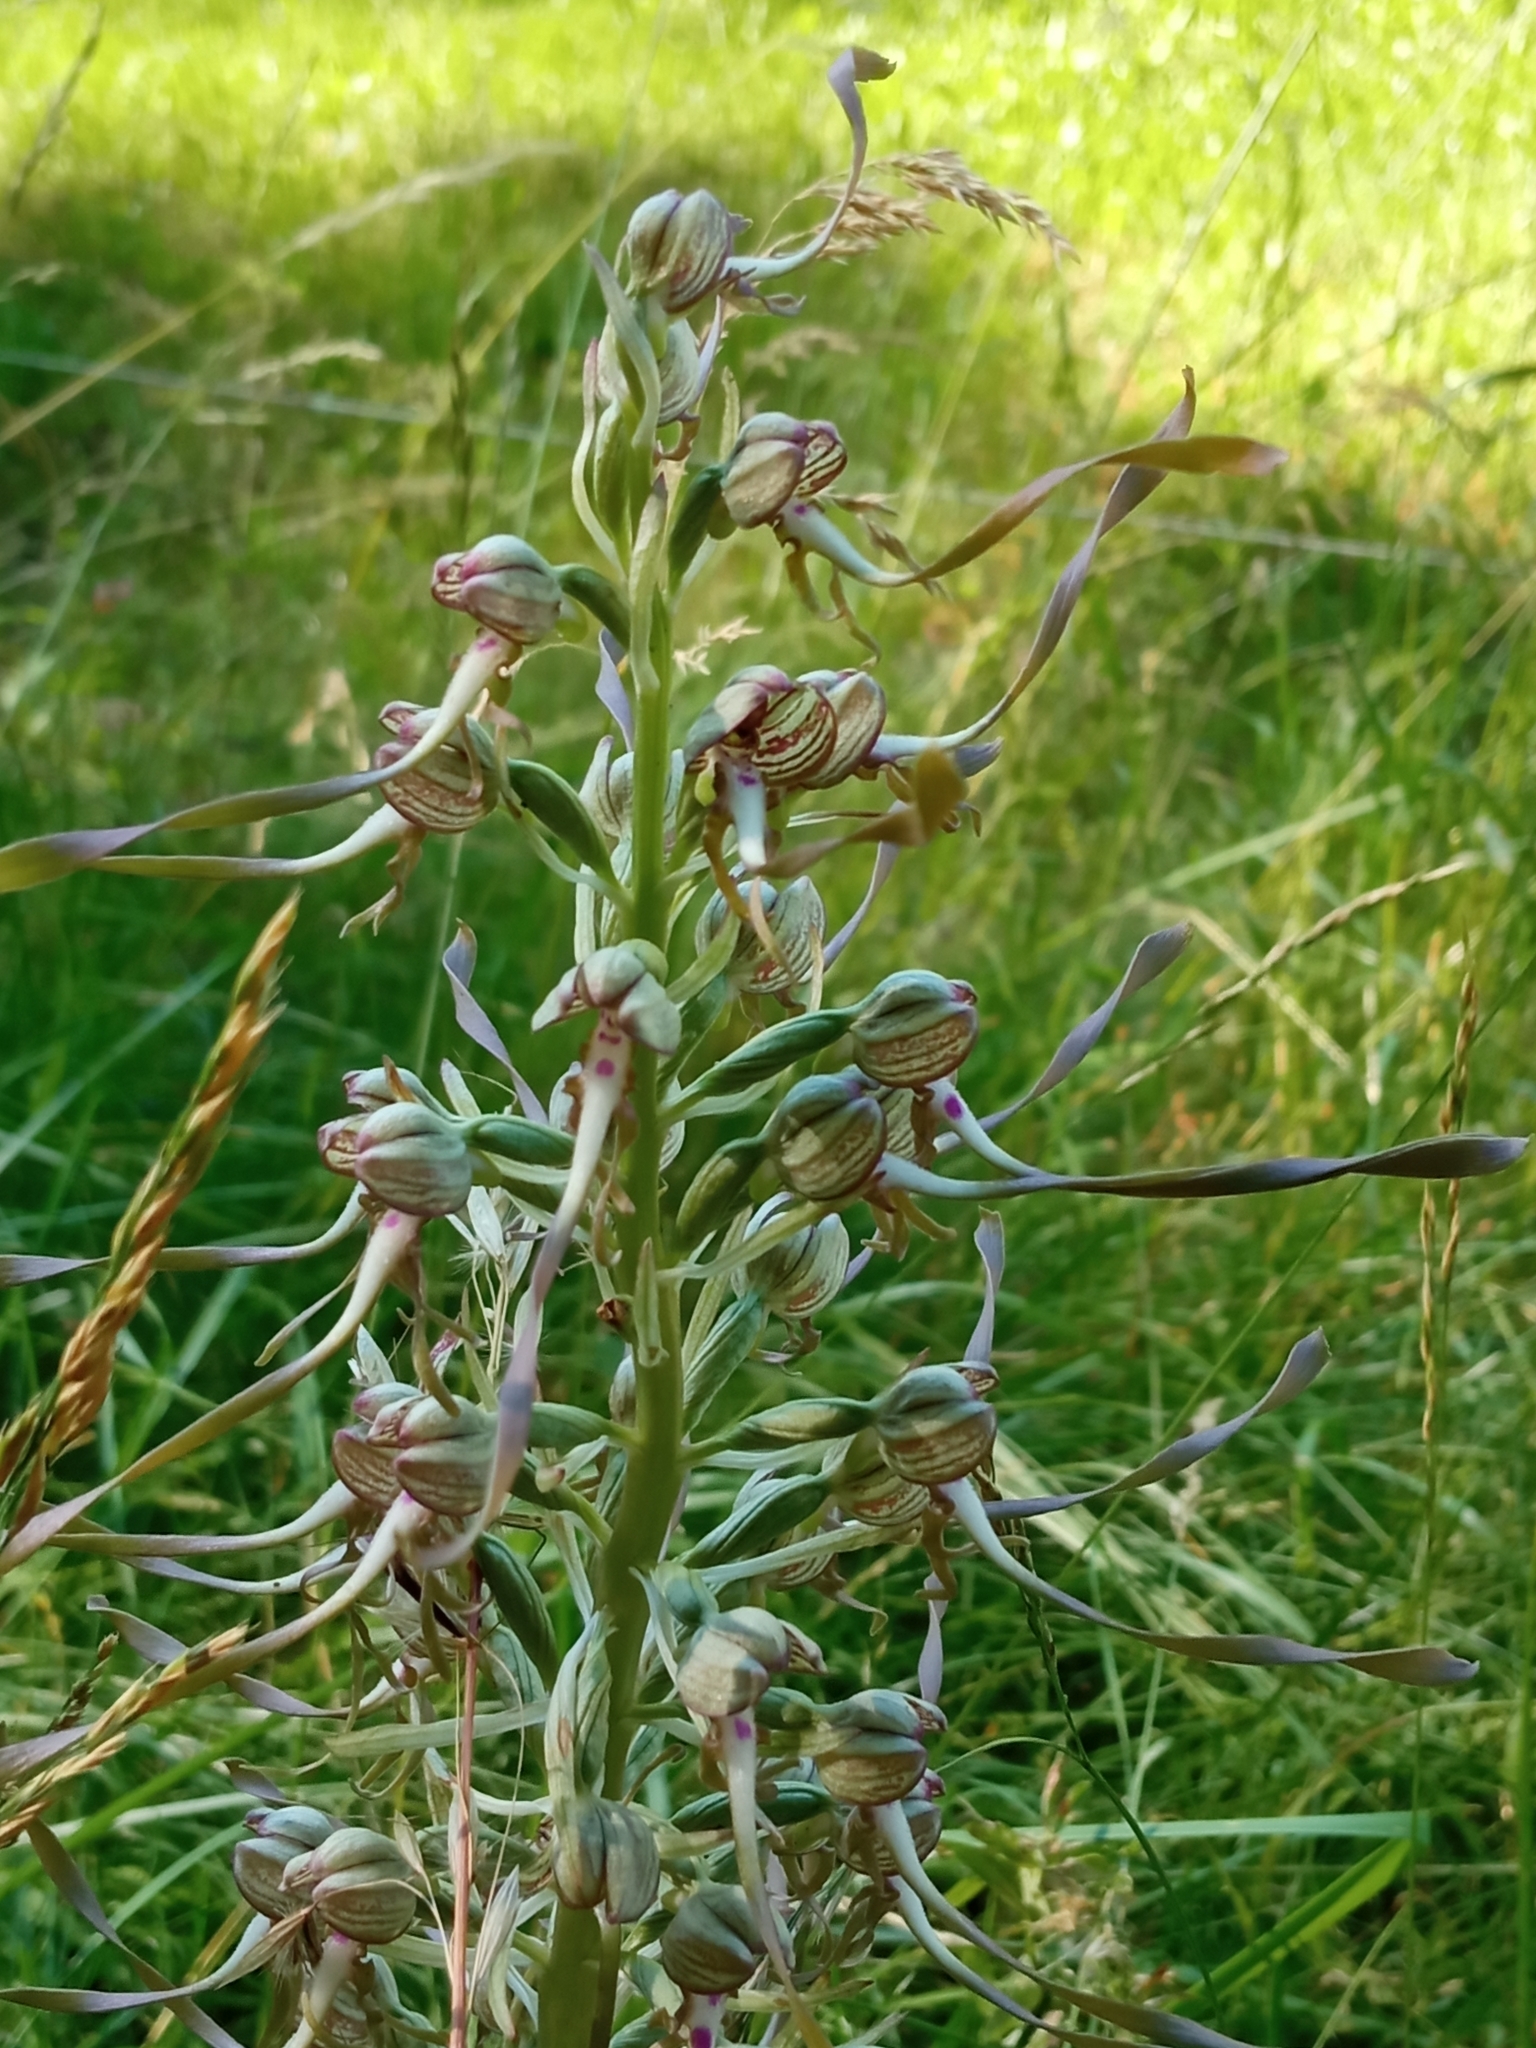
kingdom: Plantae
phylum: Tracheophyta
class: Liliopsida
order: Asparagales
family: Orchidaceae
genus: Himantoglossum
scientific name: Himantoglossum hircinum
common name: Lizard orchid
